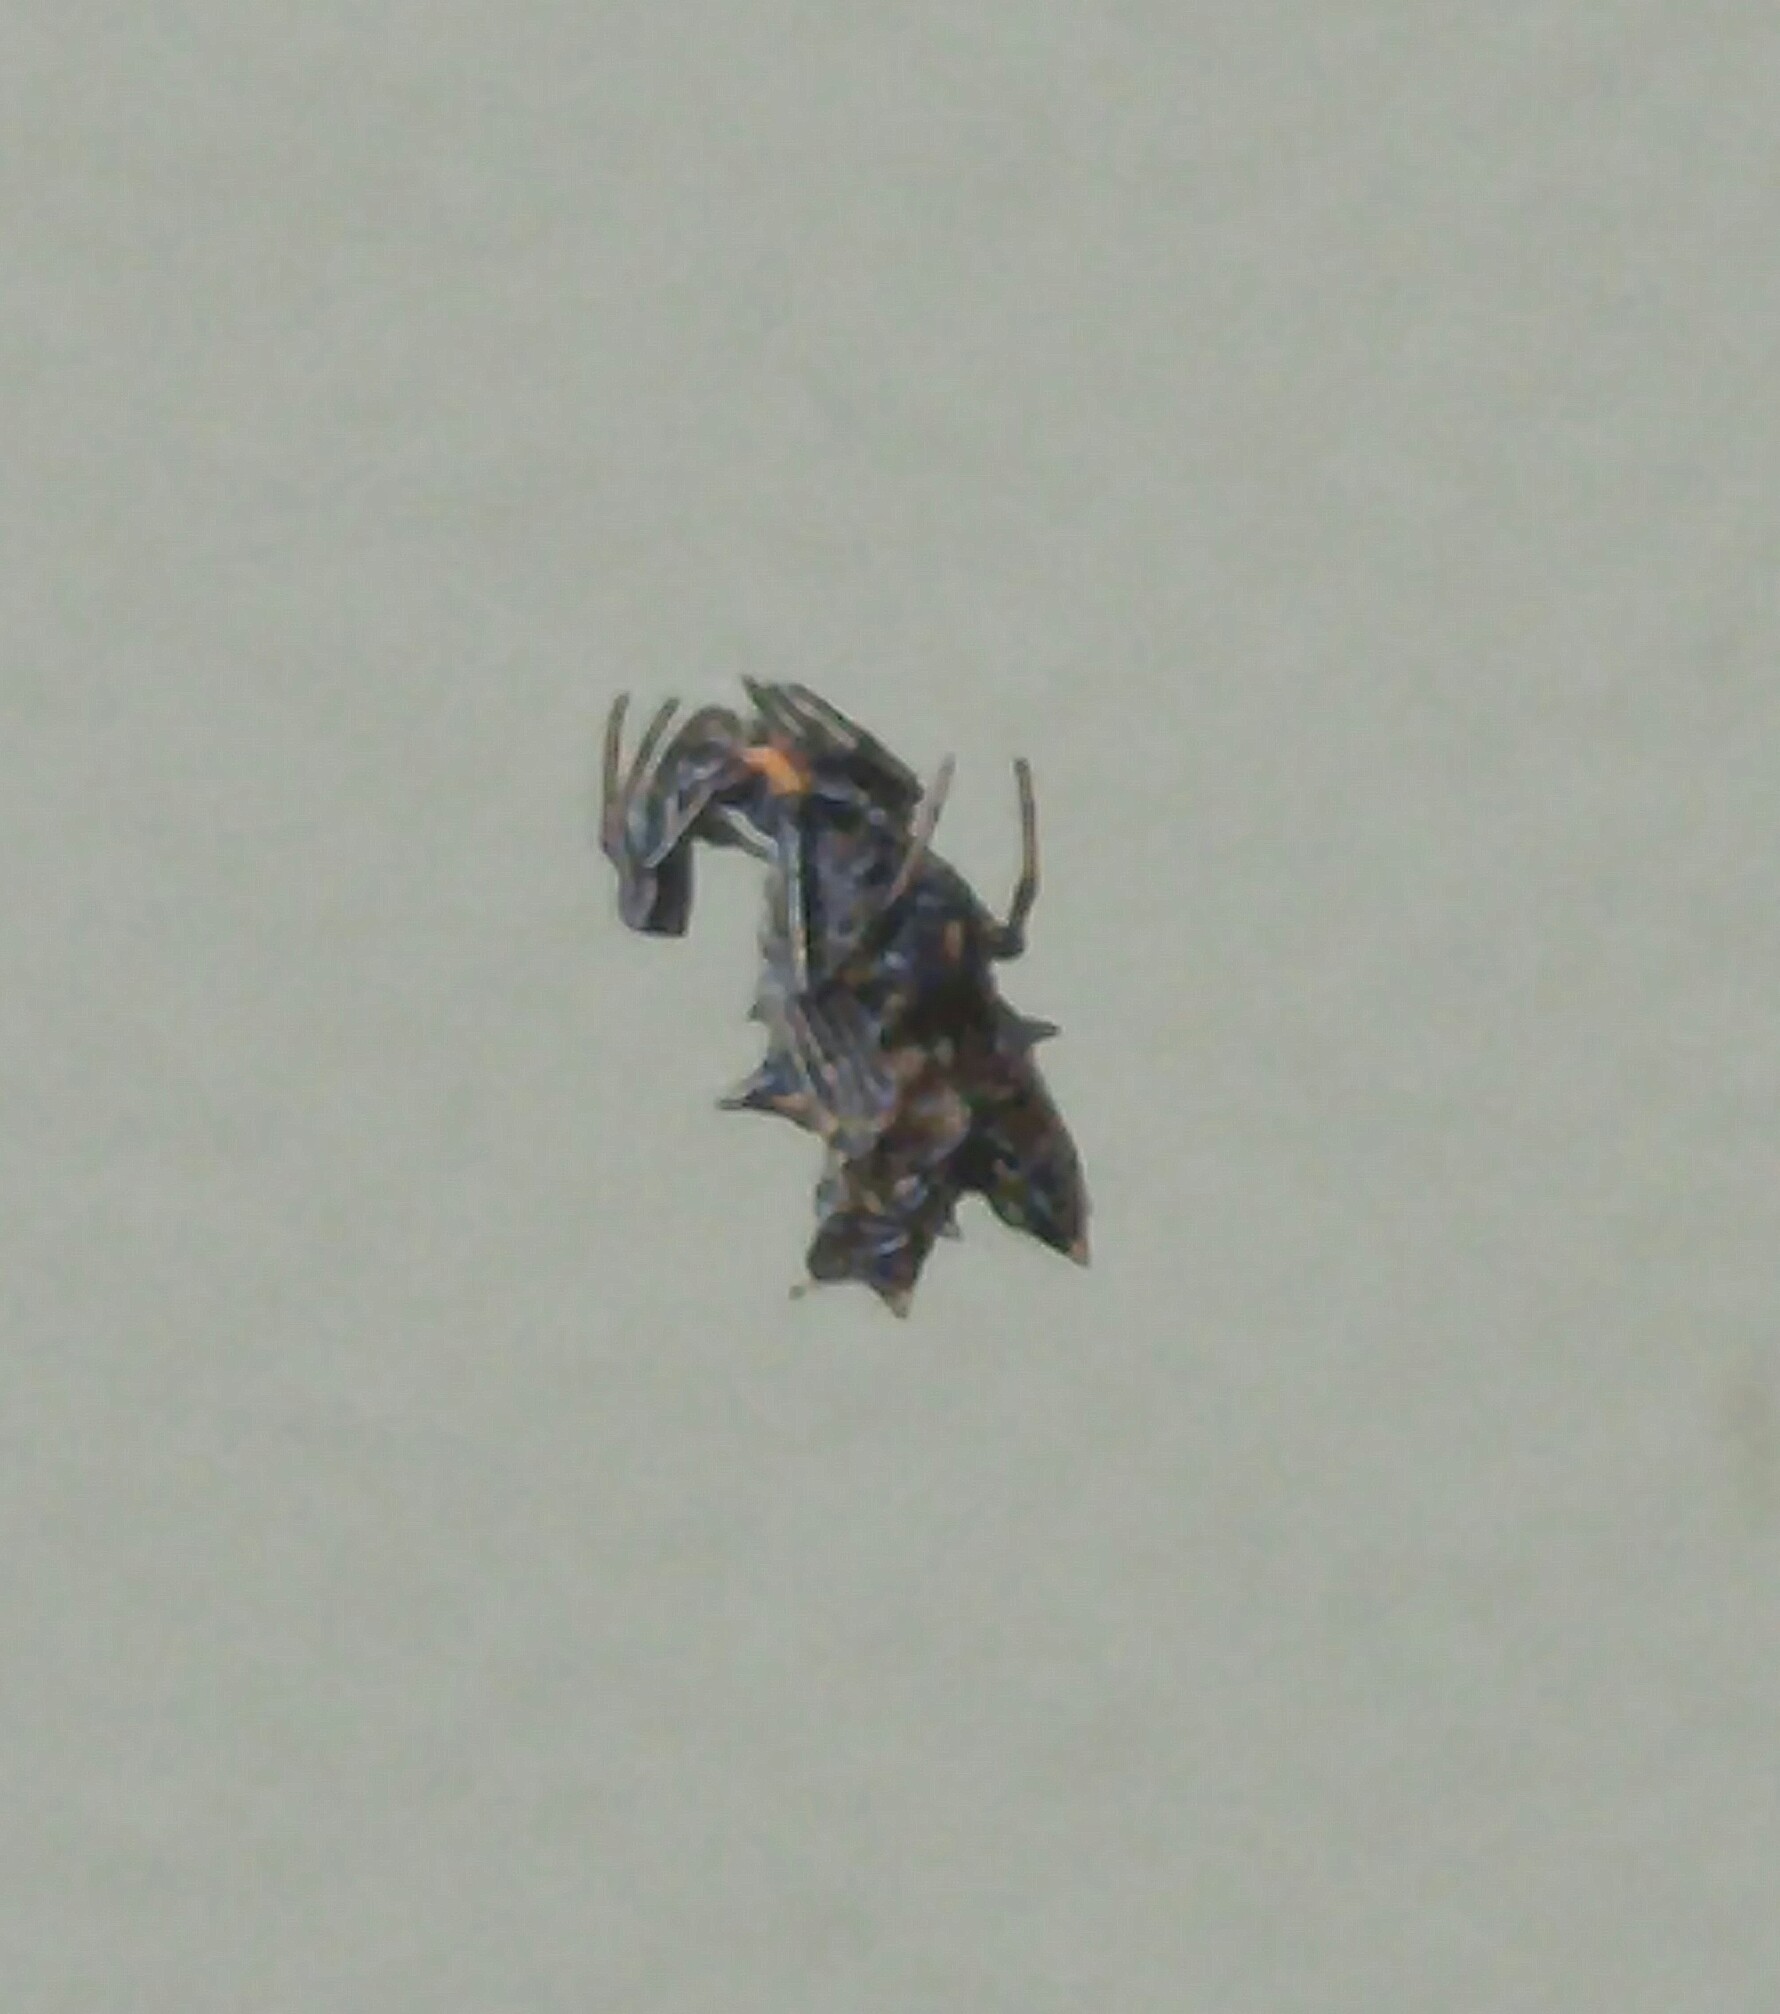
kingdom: Animalia
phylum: Arthropoda
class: Arachnida
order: Araneae
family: Araneidae
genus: Micrathena
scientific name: Micrathena gracilis
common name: Orb weavers
